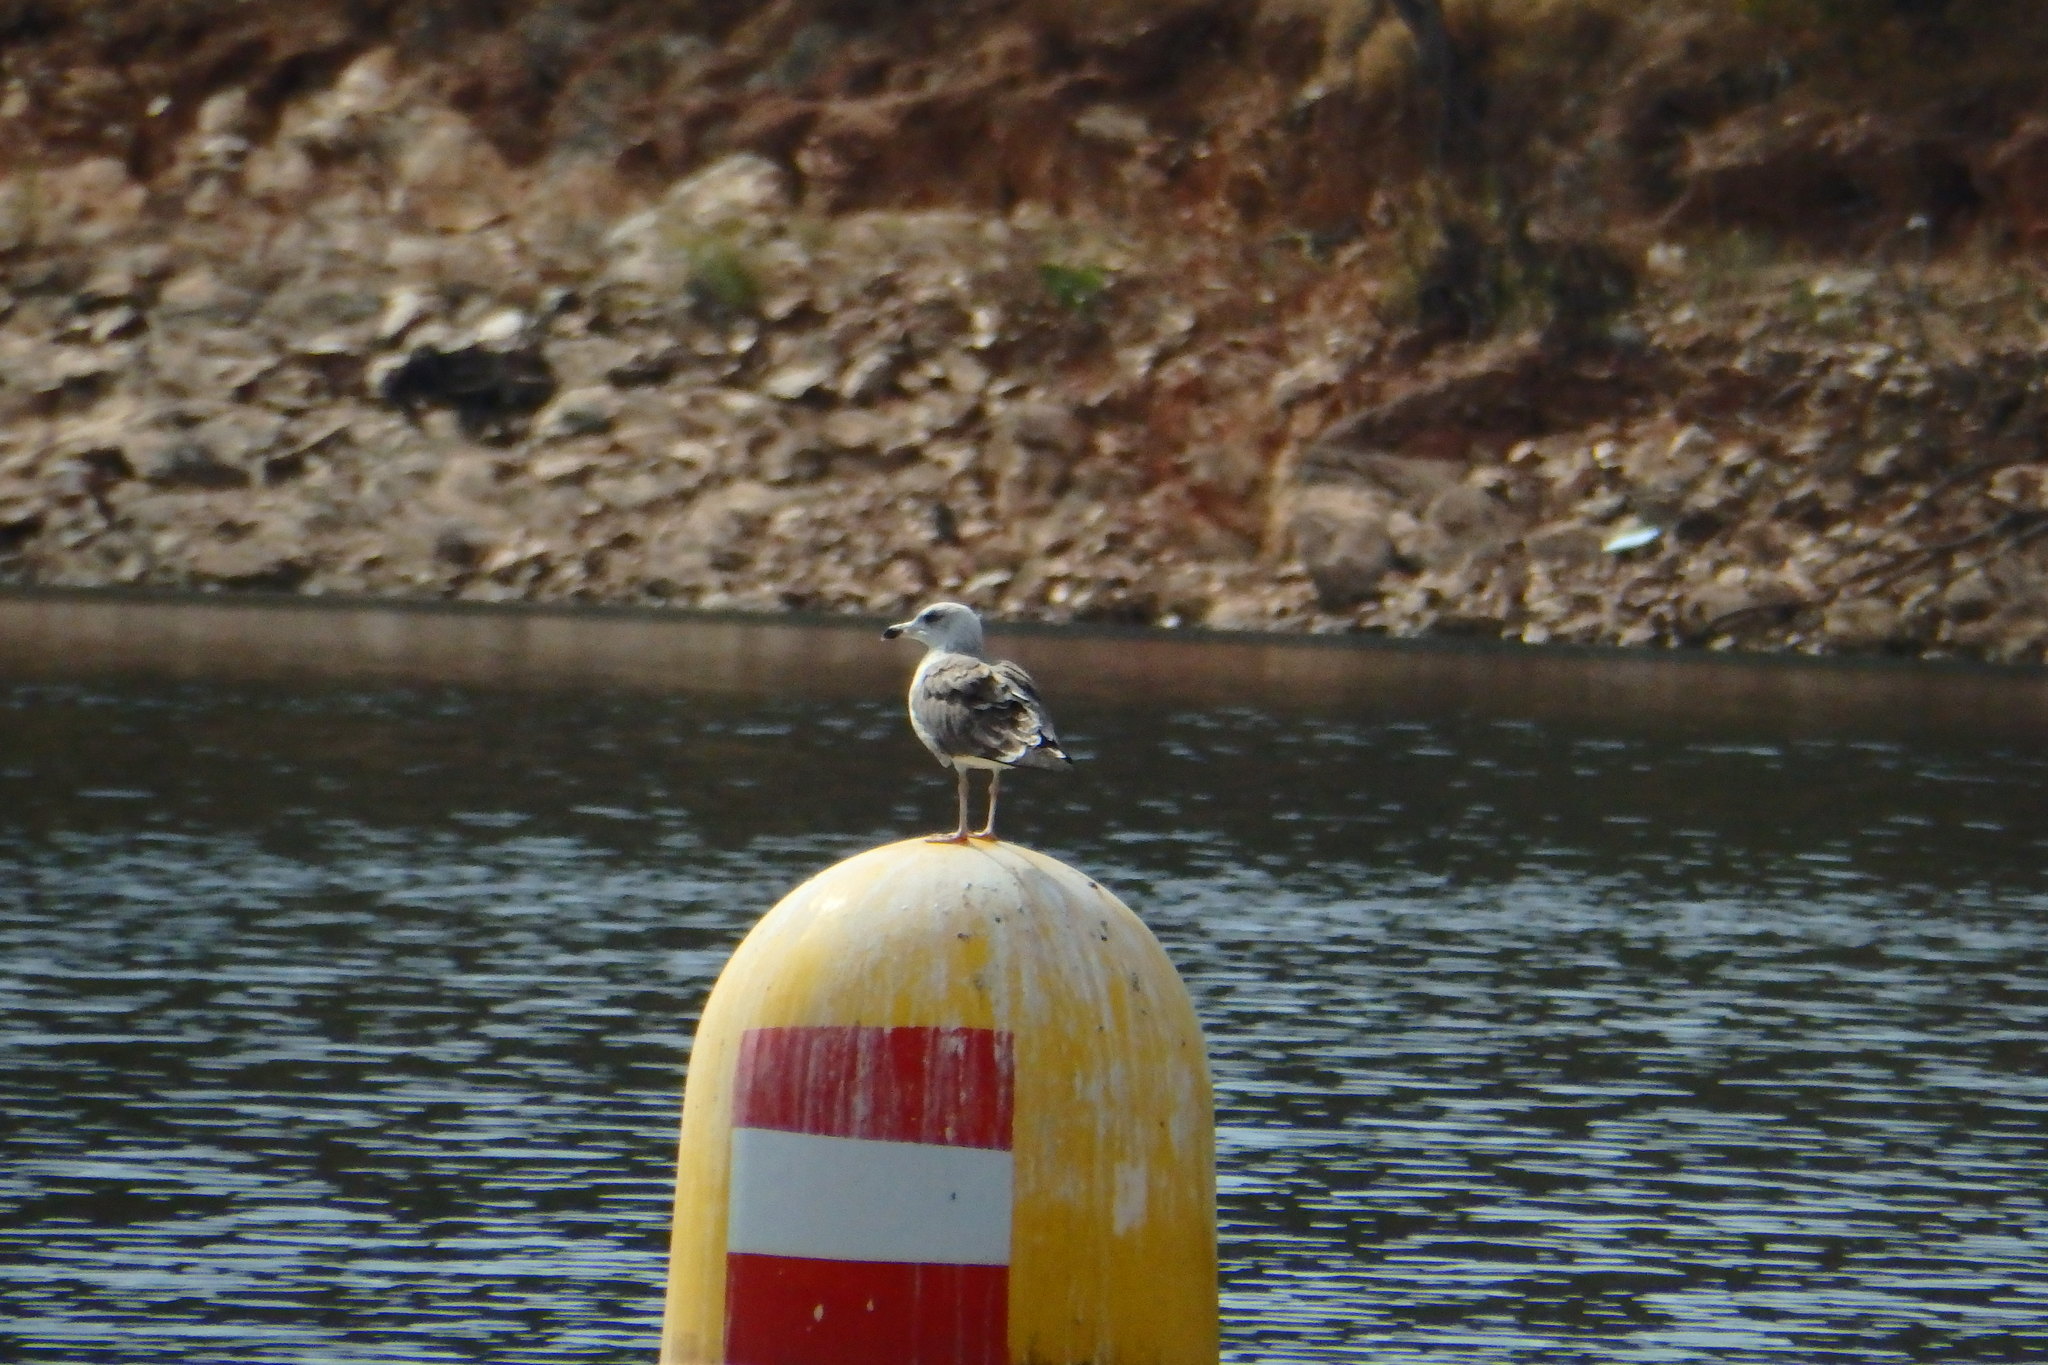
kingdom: Animalia
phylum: Chordata
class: Aves
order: Charadriiformes
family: Laridae
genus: Larus
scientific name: Larus michahellis
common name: Yellow-legged gull
